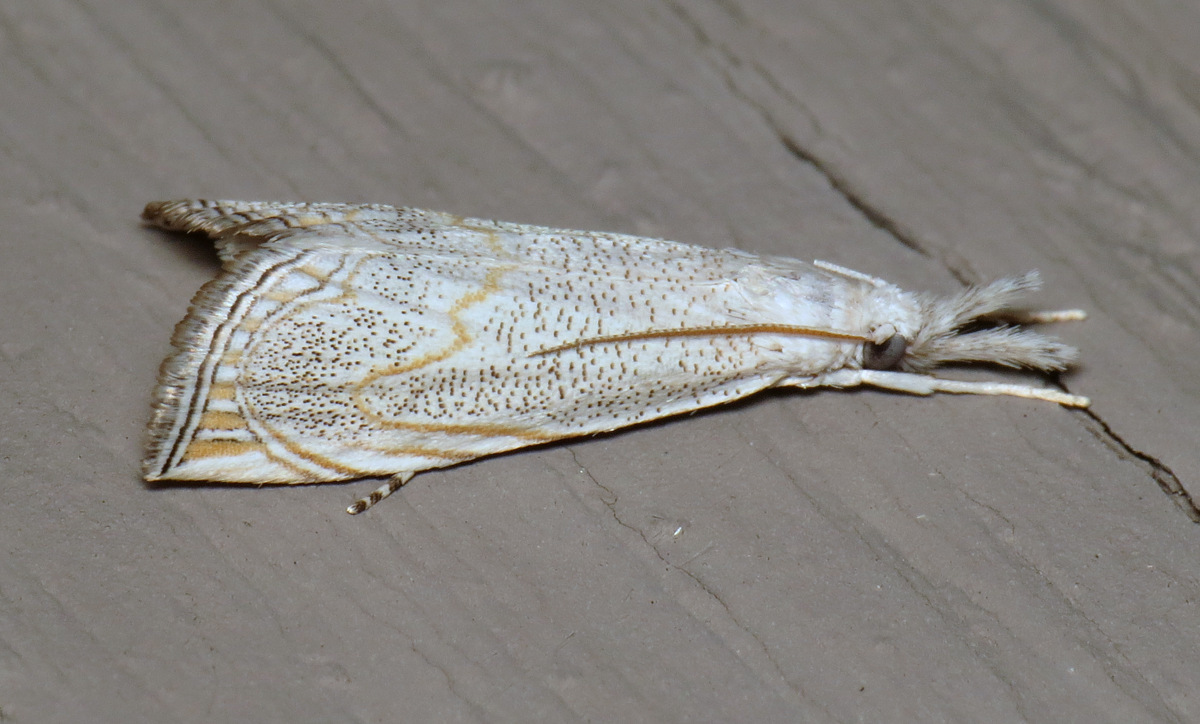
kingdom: Animalia
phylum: Arthropoda
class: Insecta
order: Lepidoptera
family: Crambidae
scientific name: Crambidae
